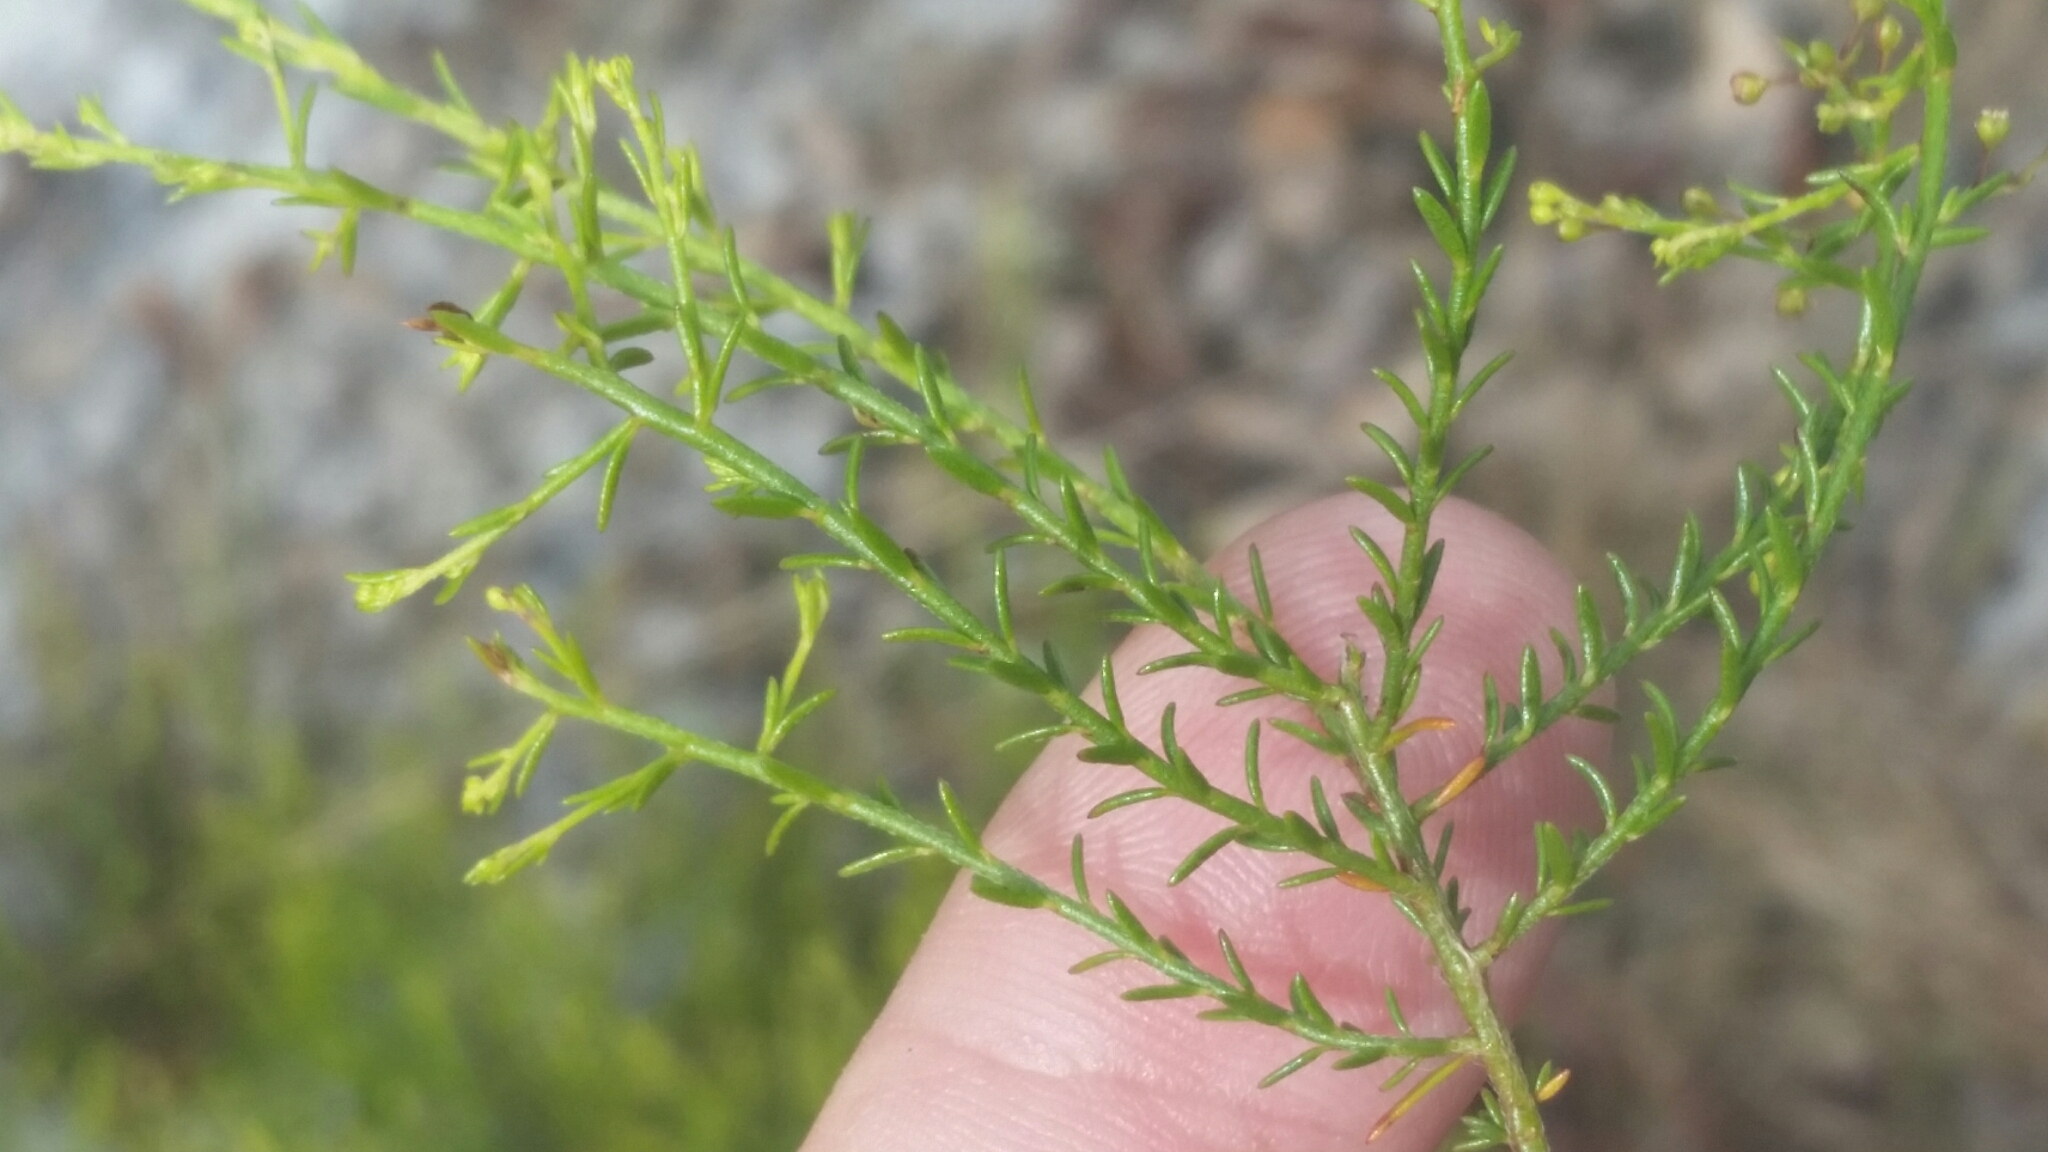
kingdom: Plantae
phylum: Tracheophyta
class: Magnoliopsida
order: Malvales
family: Cistaceae
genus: Lechea
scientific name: Lechea deckertii
